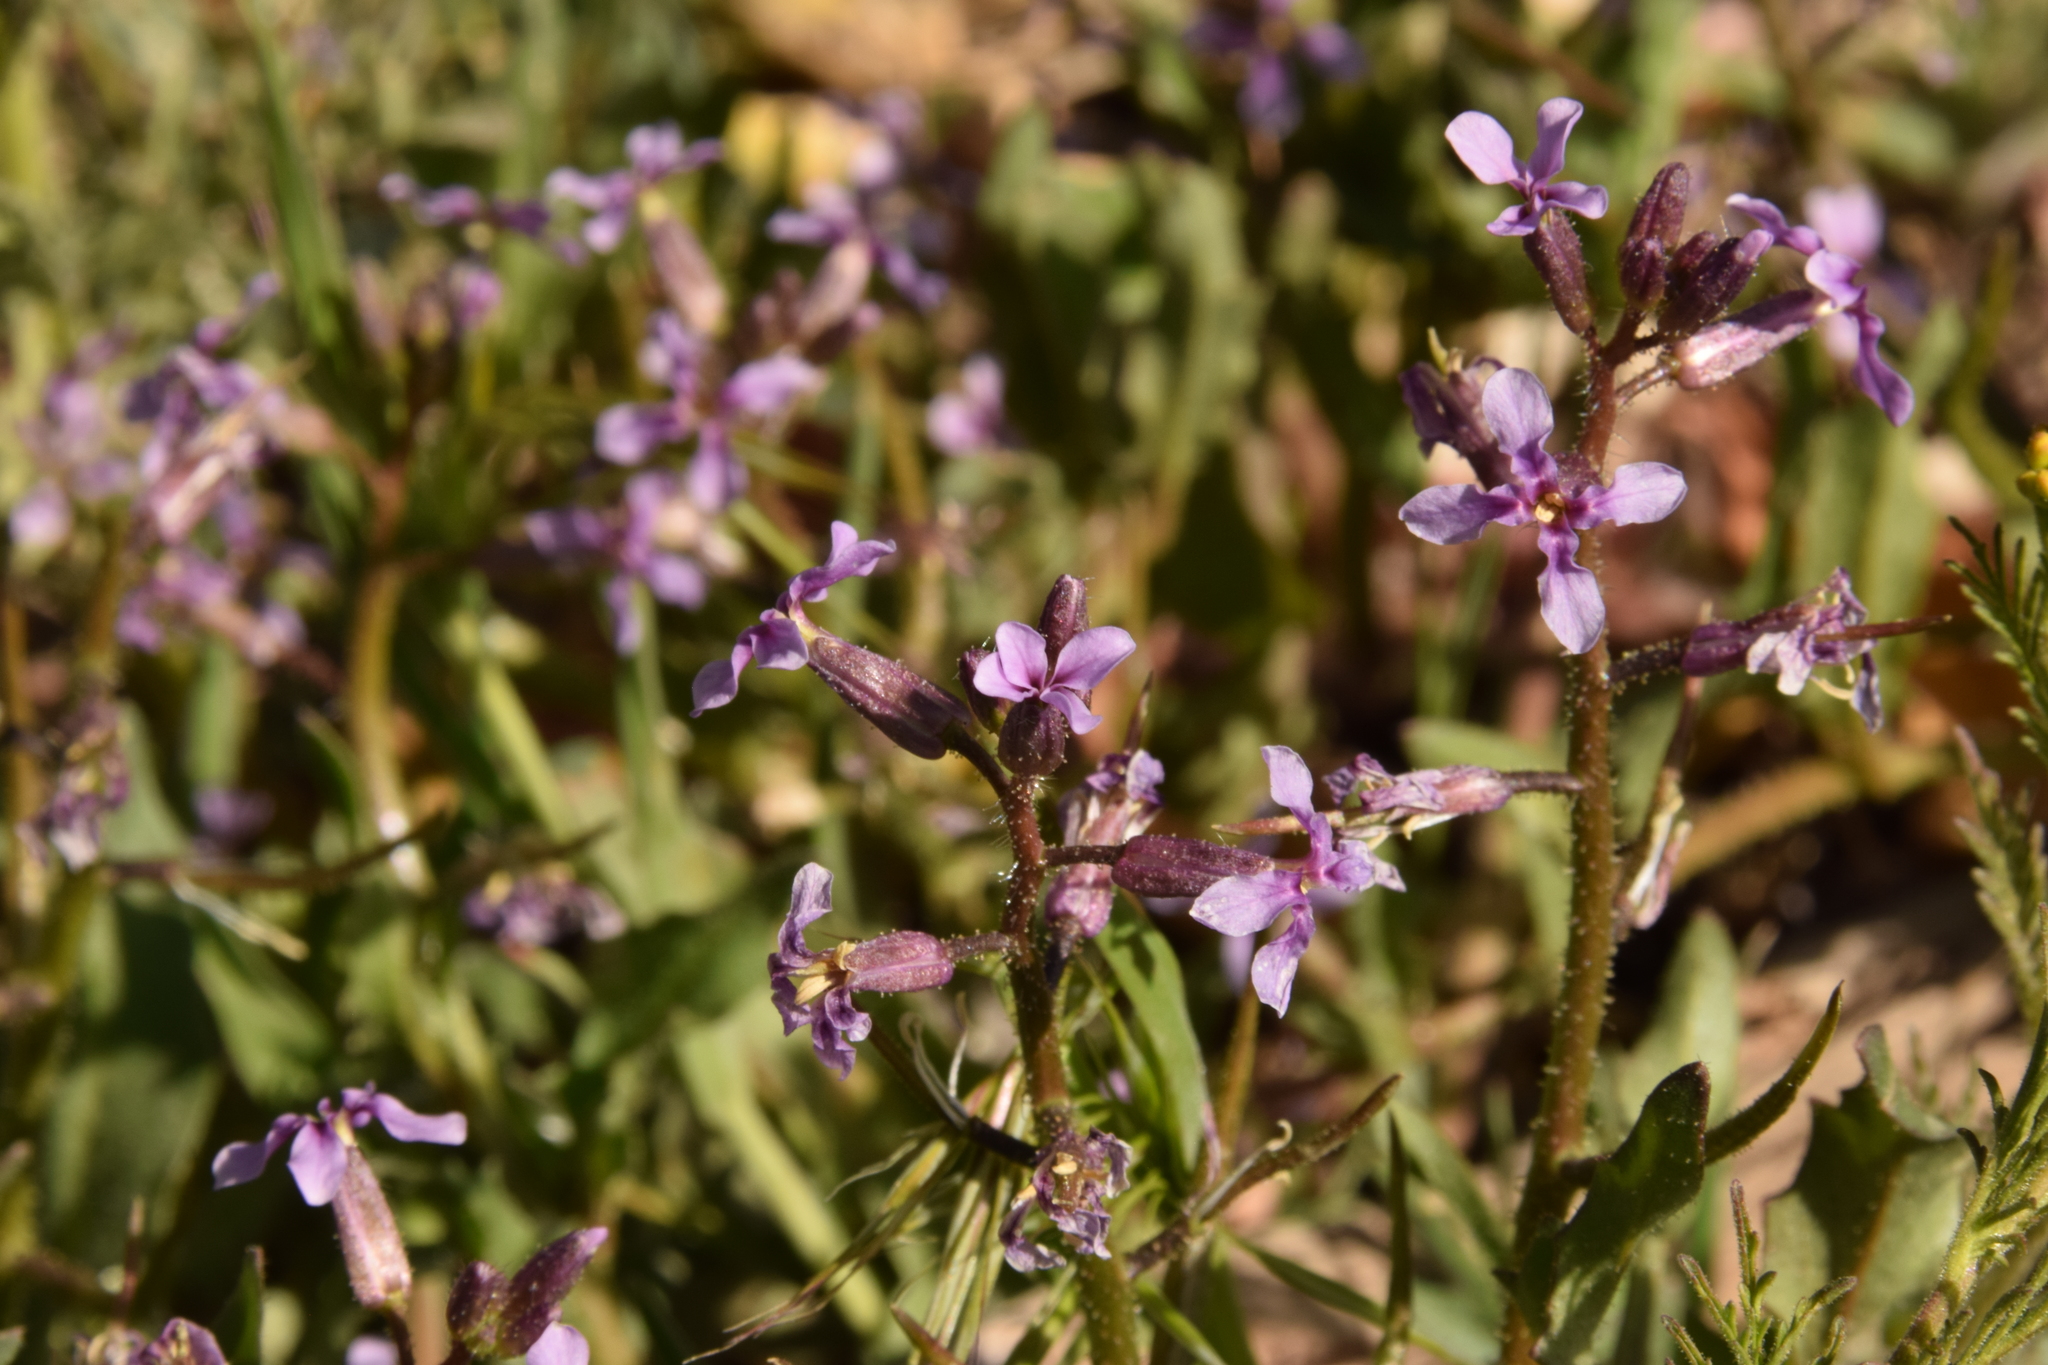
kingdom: Plantae
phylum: Tracheophyta
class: Magnoliopsida
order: Brassicales
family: Brassicaceae
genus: Chorispora
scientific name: Chorispora tenella
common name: Crossflower
